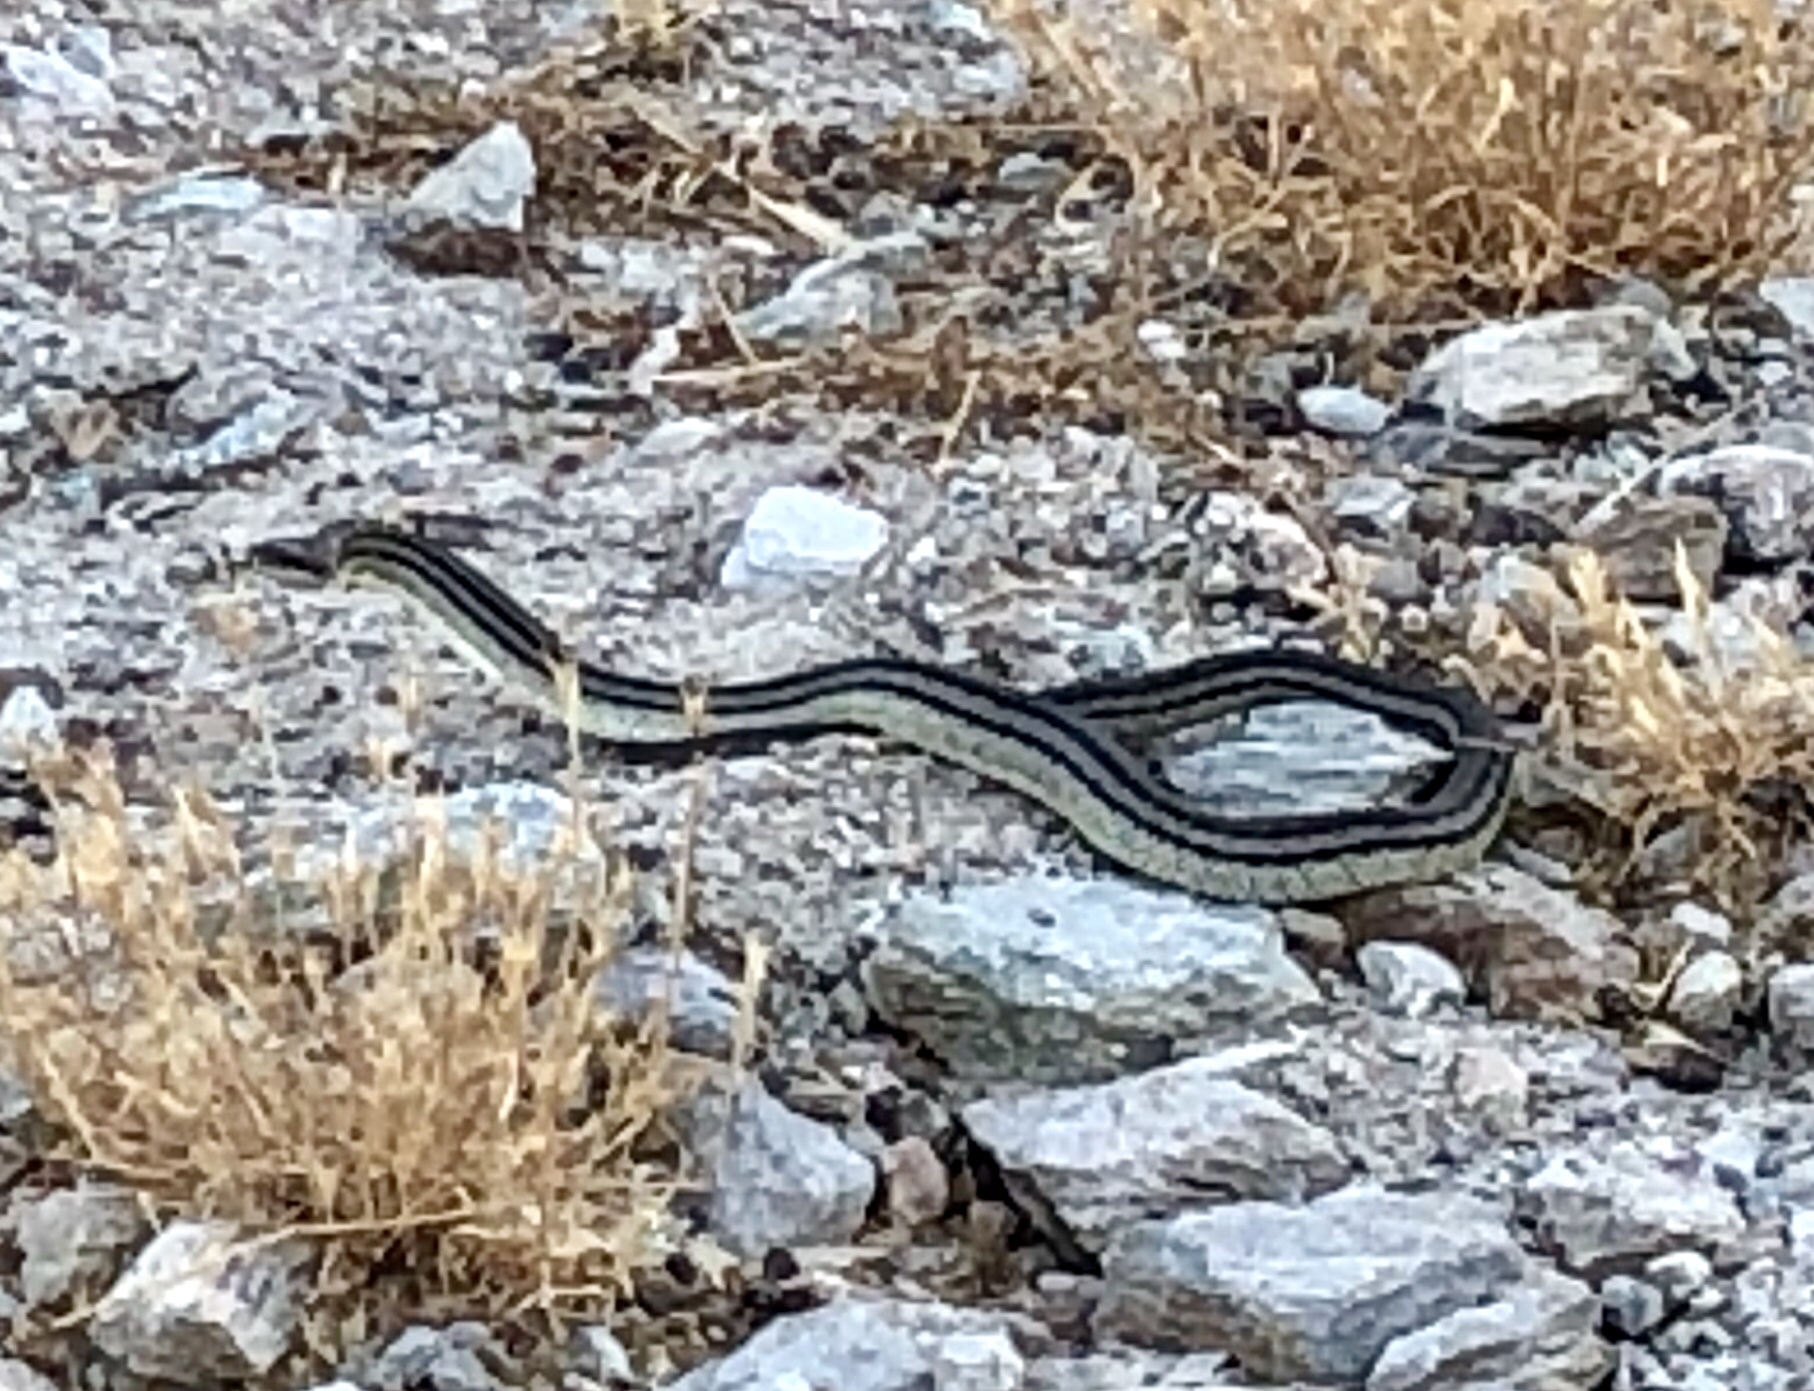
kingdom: Animalia
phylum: Chordata
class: Squamata
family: Colubridae
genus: Elaphe
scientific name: Elaphe quatuorlineata
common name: Four-lined snake
